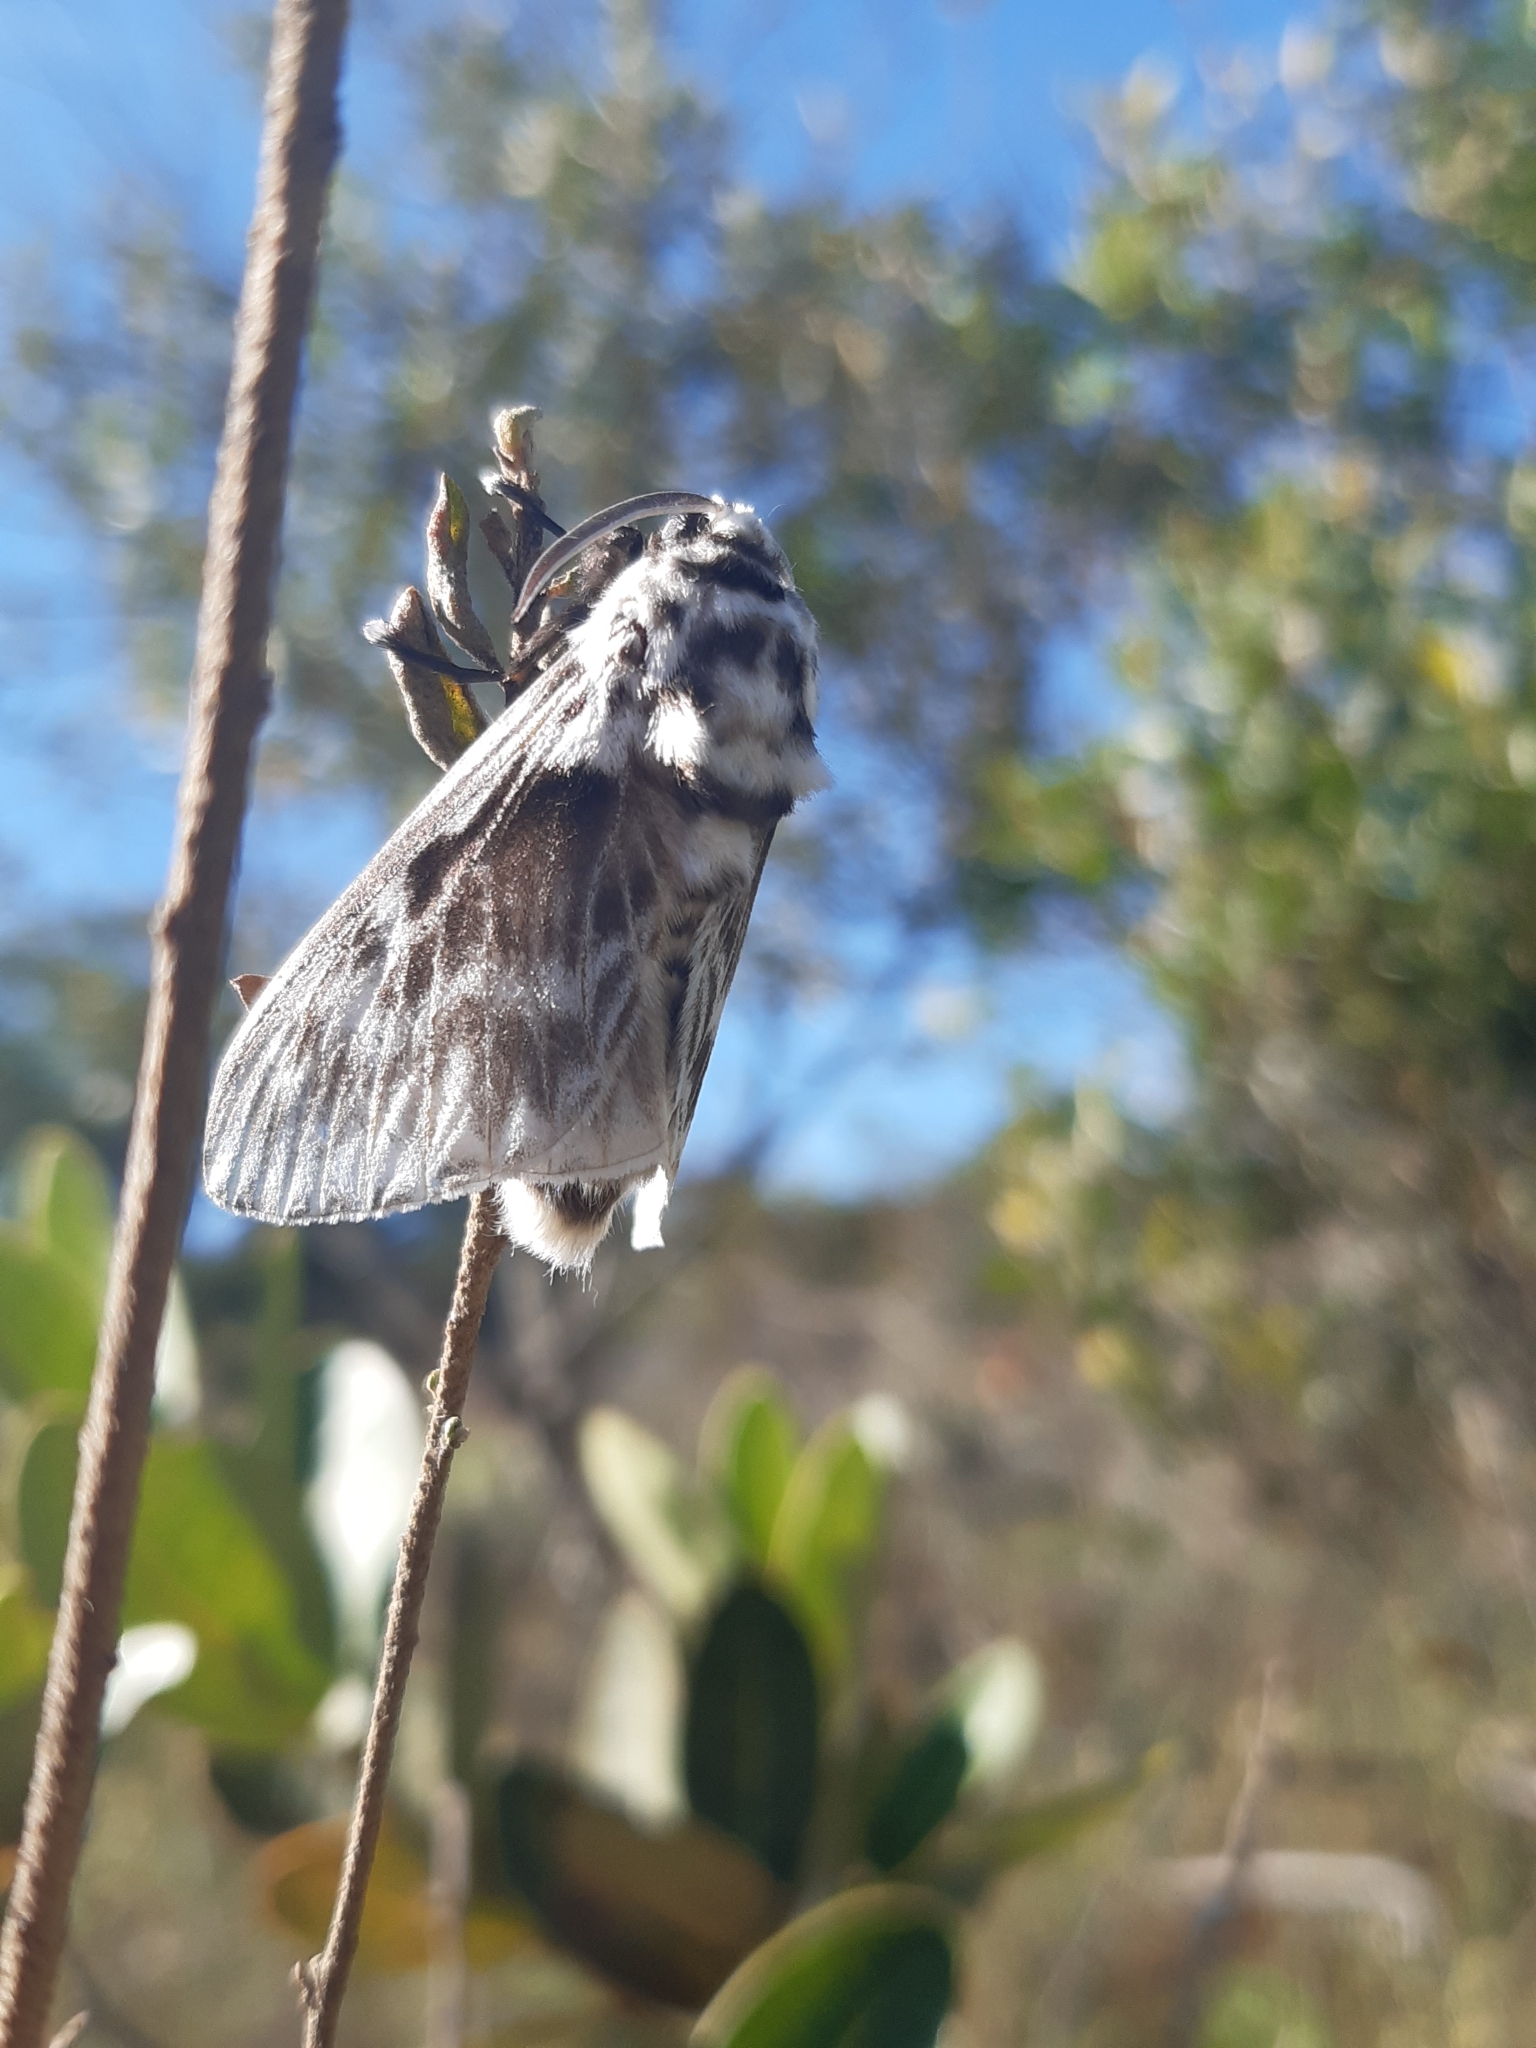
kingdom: Animalia
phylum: Arthropoda
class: Insecta
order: Lepidoptera
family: Megalopygidae
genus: Podalia
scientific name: Podalia orsilochus
